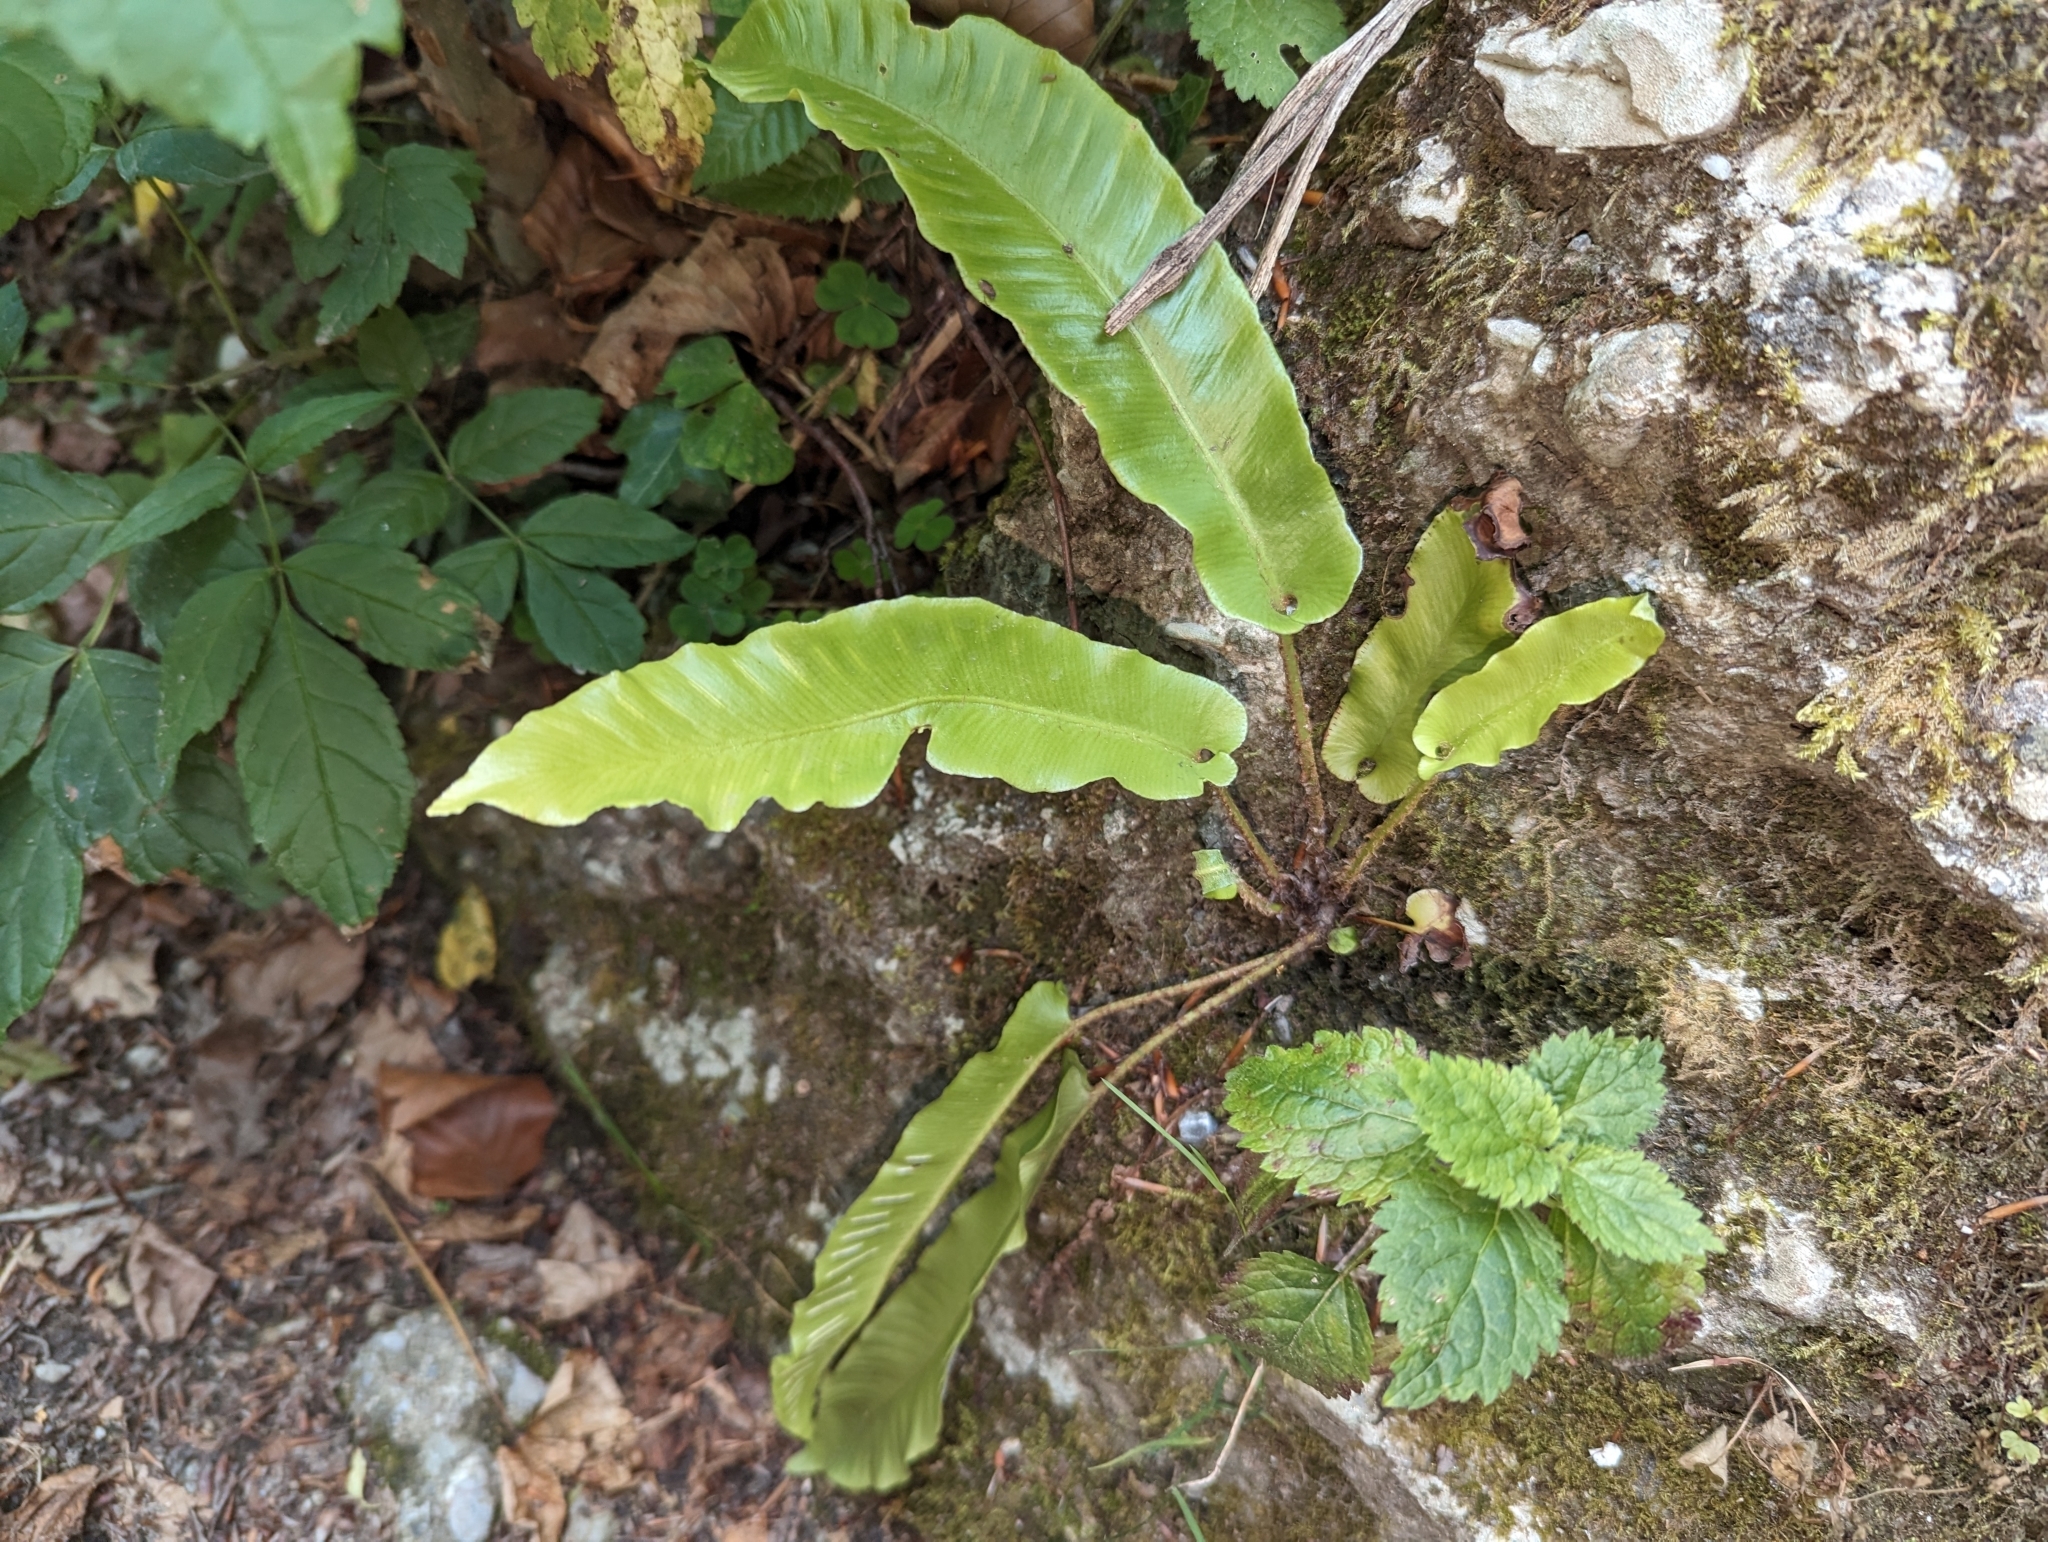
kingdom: Plantae
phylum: Tracheophyta
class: Polypodiopsida
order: Polypodiales
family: Aspleniaceae
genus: Asplenium
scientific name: Asplenium scolopendrium
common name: Hart's-tongue fern
